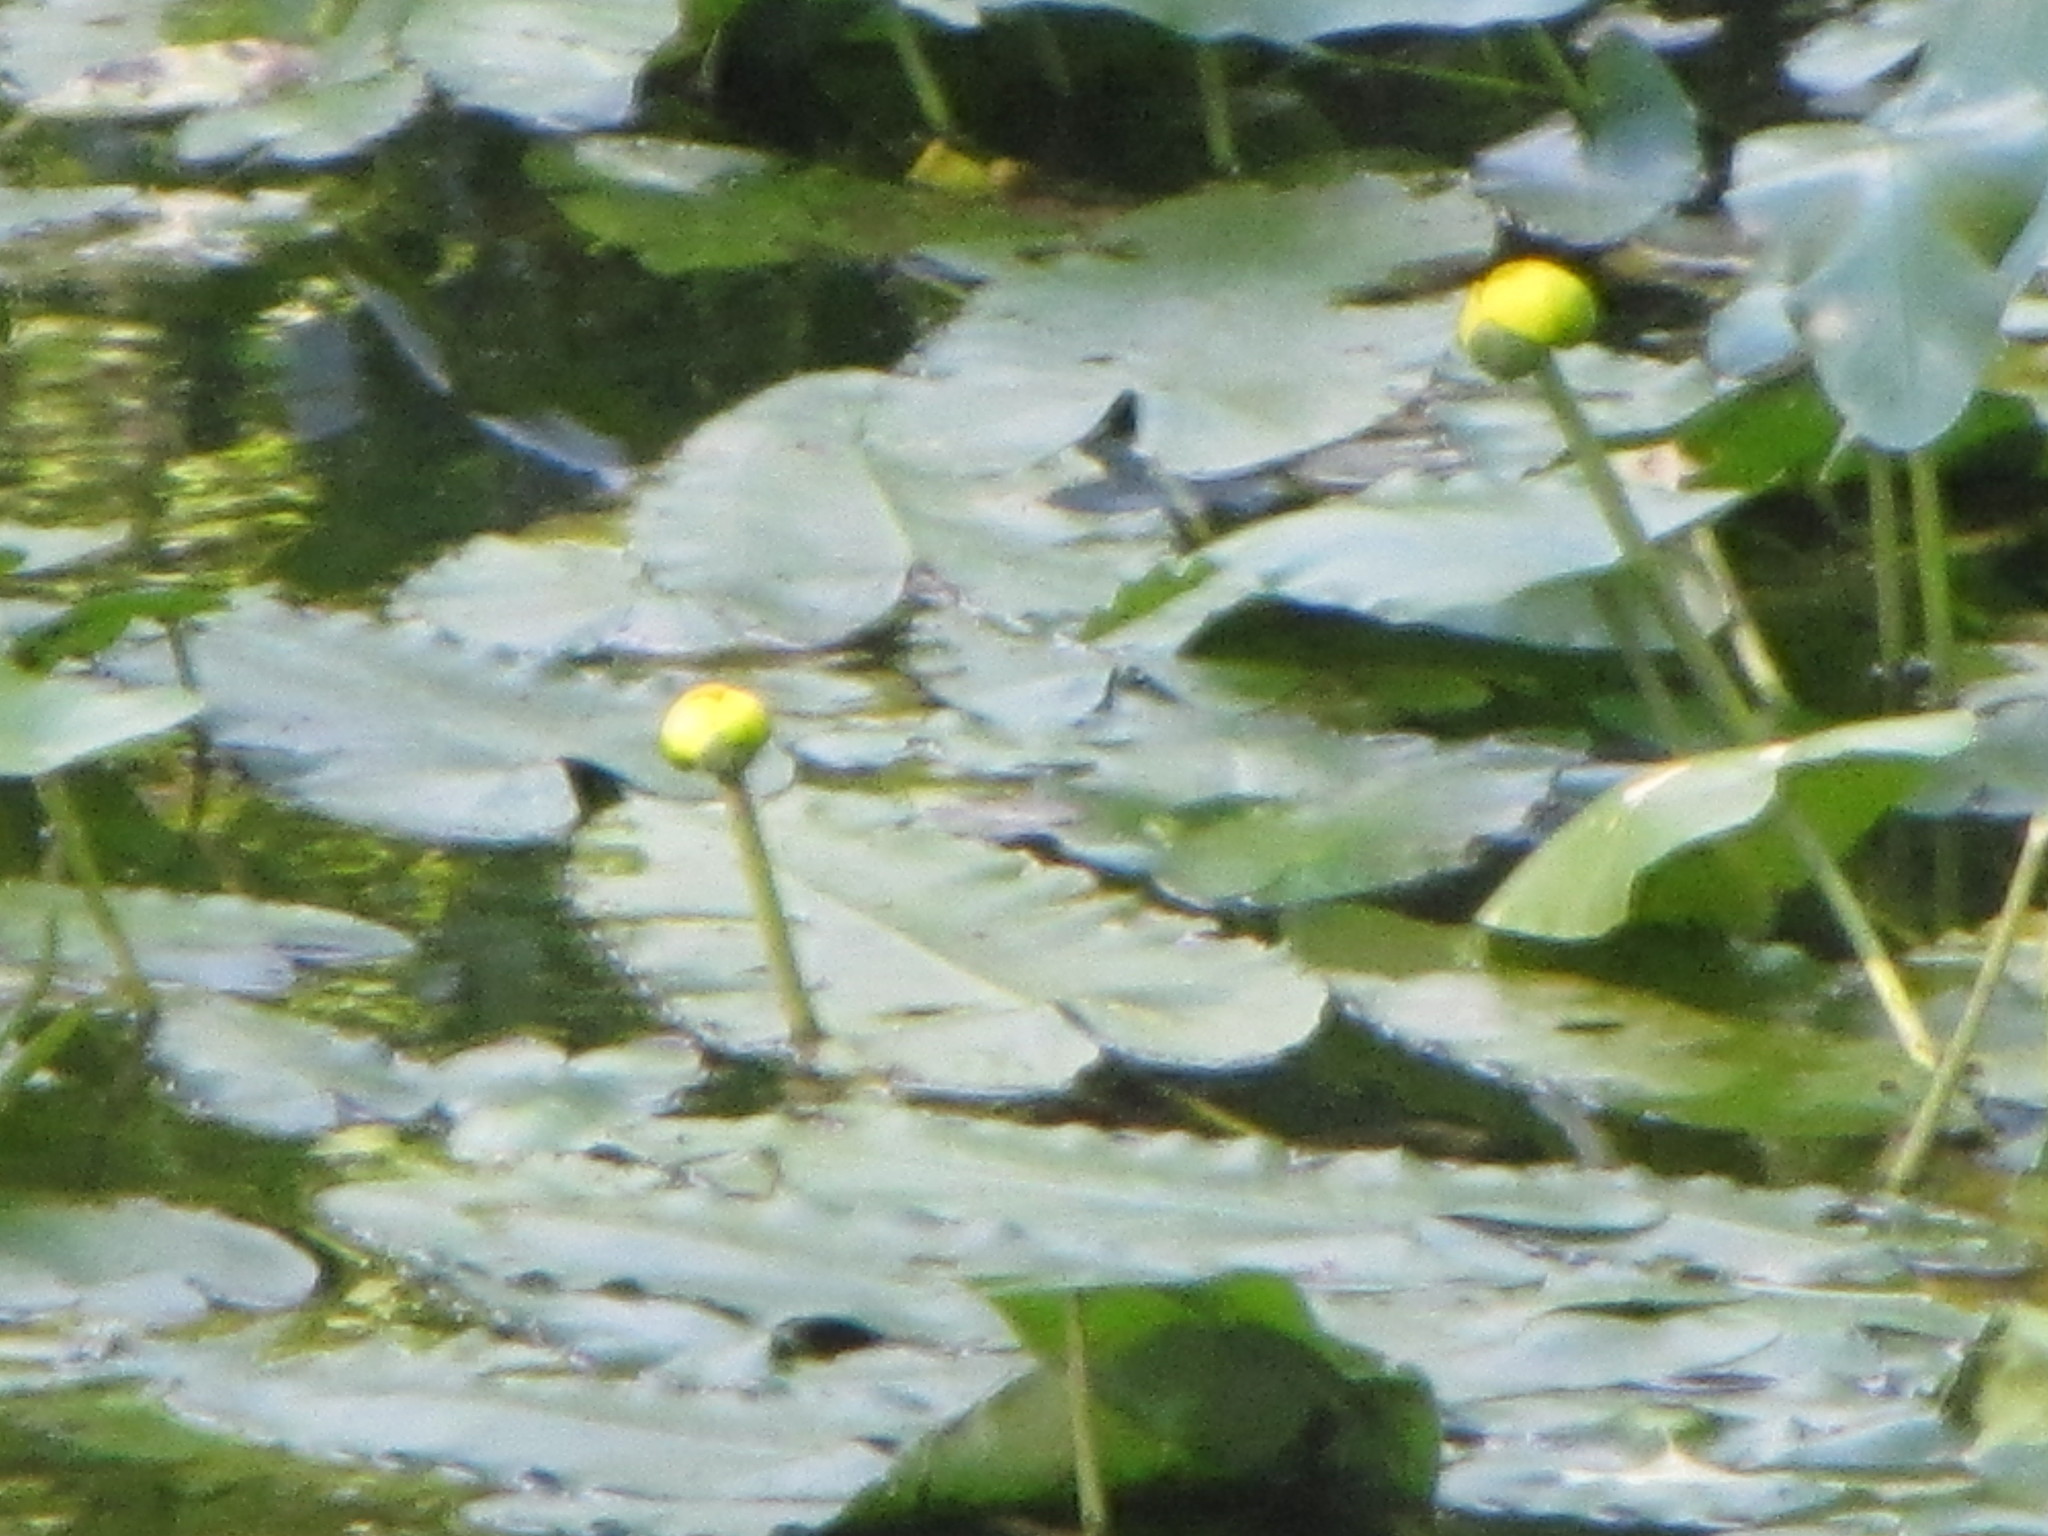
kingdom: Plantae
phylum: Tracheophyta
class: Magnoliopsida
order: Nymphaeales
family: Nymphaeaceae
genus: Nuphar
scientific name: Nuphar sagittifolia
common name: Cape fear spatterdock
